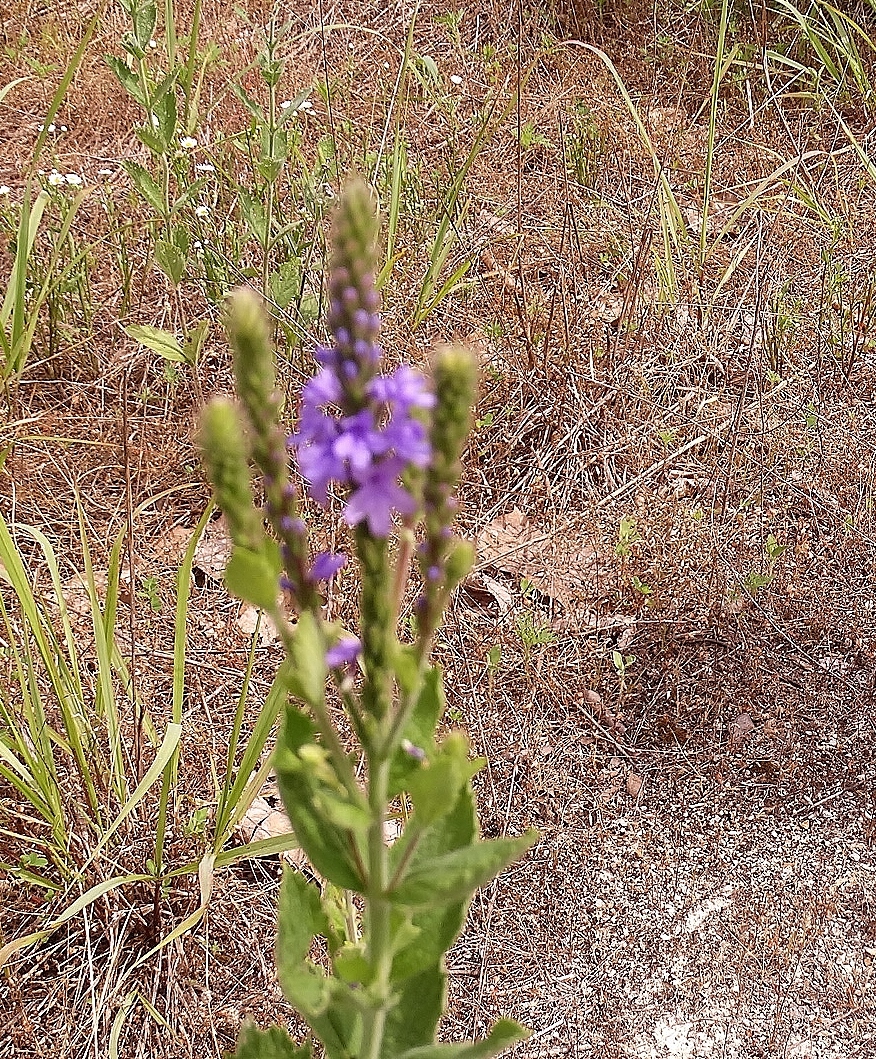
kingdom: Plantae
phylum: Tracheophyta
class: Magnoliopsida
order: Lamiales
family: Verbenaceae
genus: Verbena
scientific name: Verbena stricta
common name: Hoary vervain
